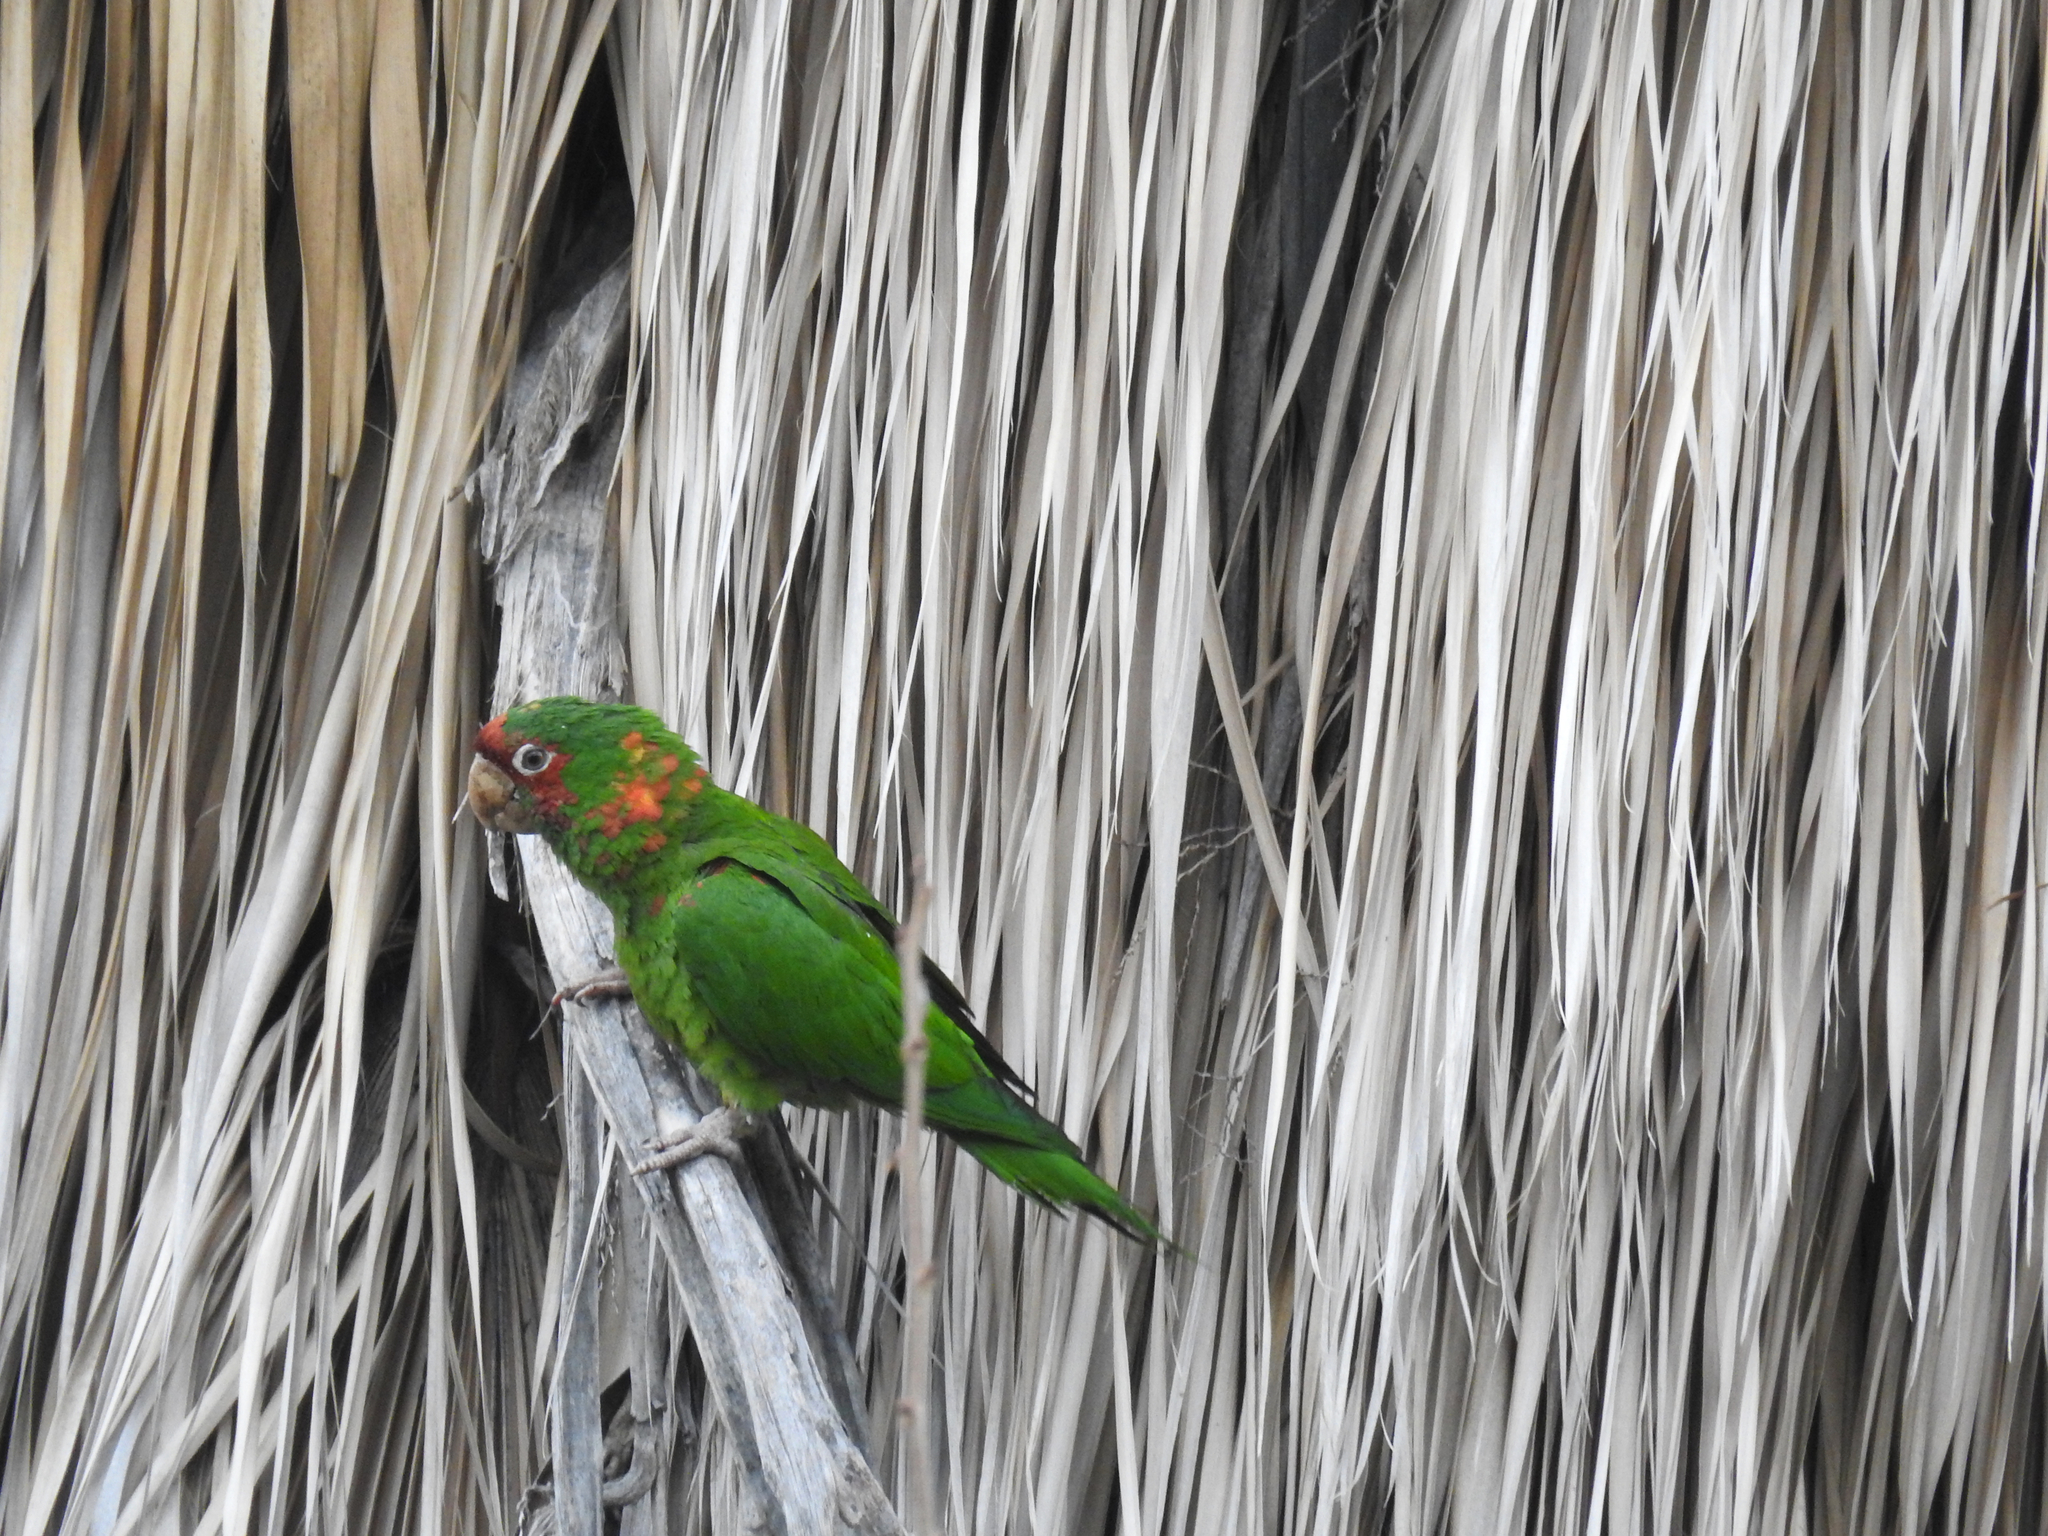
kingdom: Animalia
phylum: Chordata
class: Aves
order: Psittaciformes
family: Psittacidae
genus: Aratinga
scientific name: Aratinga mitrata
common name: Mitred parakeet
